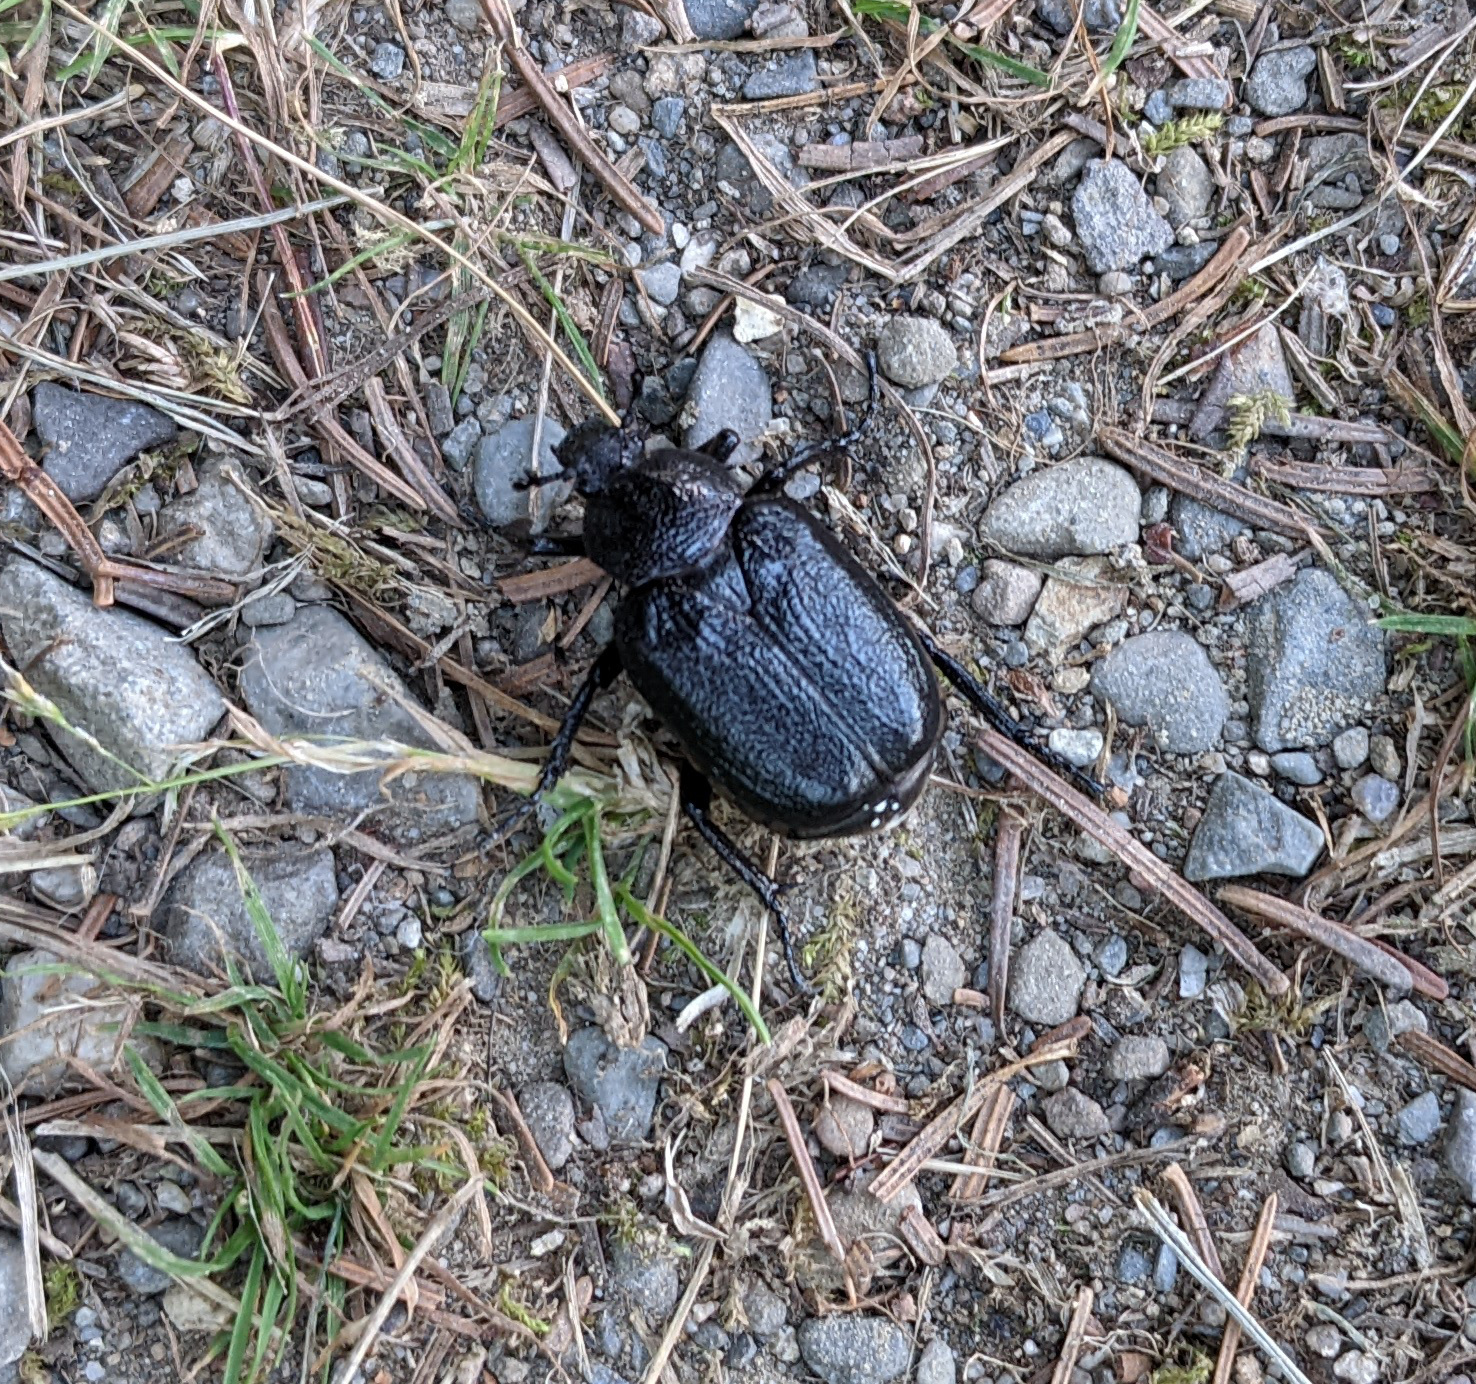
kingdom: Animalia
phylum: Arthropoda
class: Insecta
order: Coleoptera
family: Scarabaeidae
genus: Osmoderma
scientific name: Osmoderma scabra
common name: Rough hermit beetle
